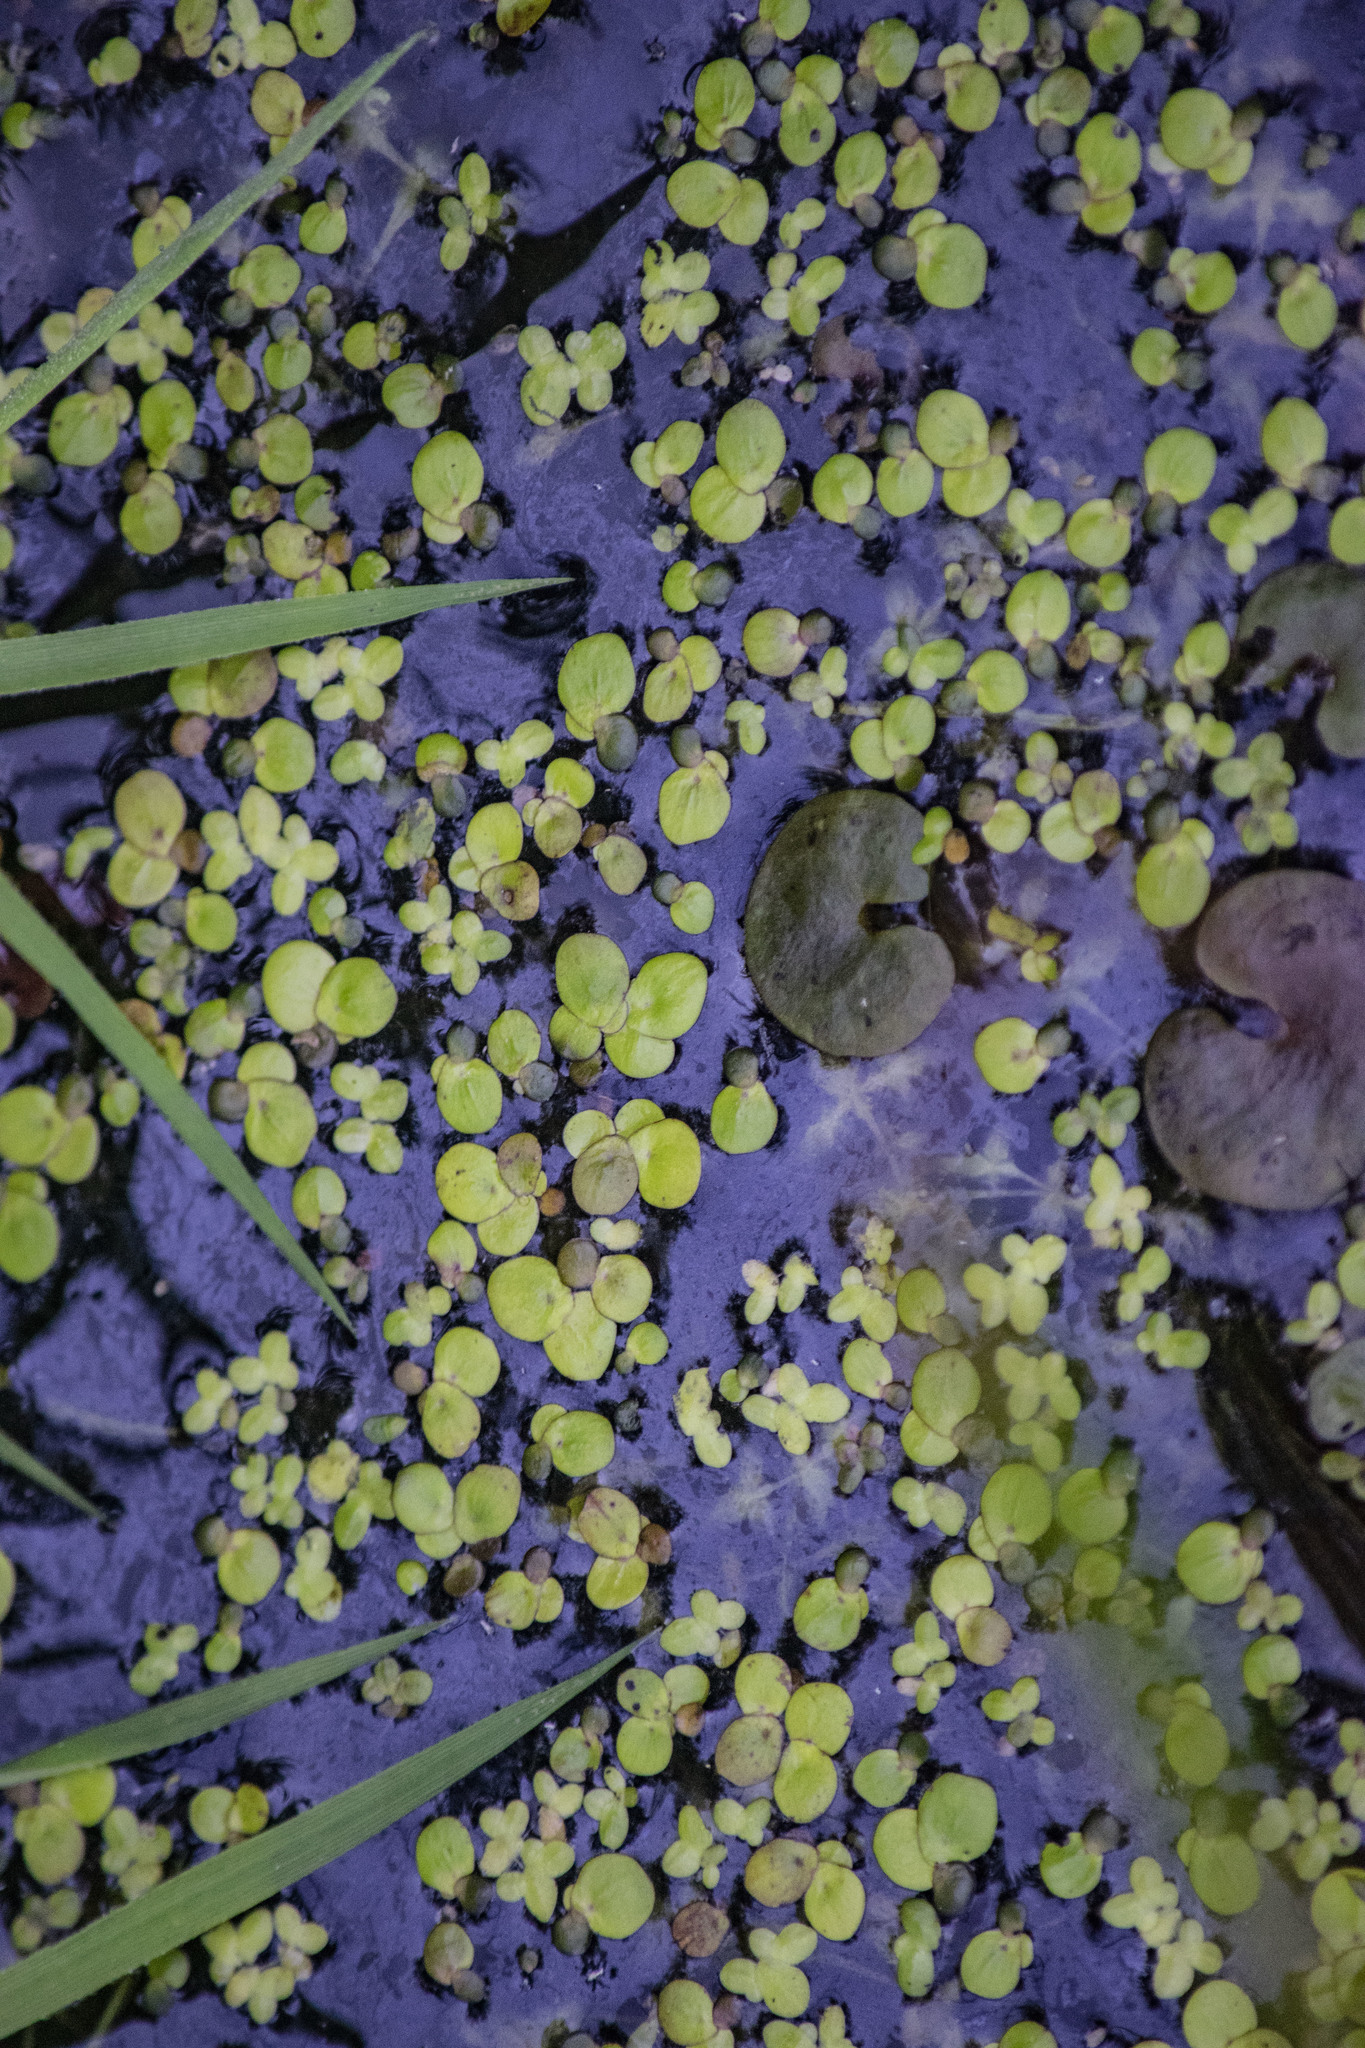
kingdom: Plantae
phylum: Tracheophyta
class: Liliopsida
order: Alismatales
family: Araceae
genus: Spirodela
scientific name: Spirodela polyrhiza
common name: Great duckweed
